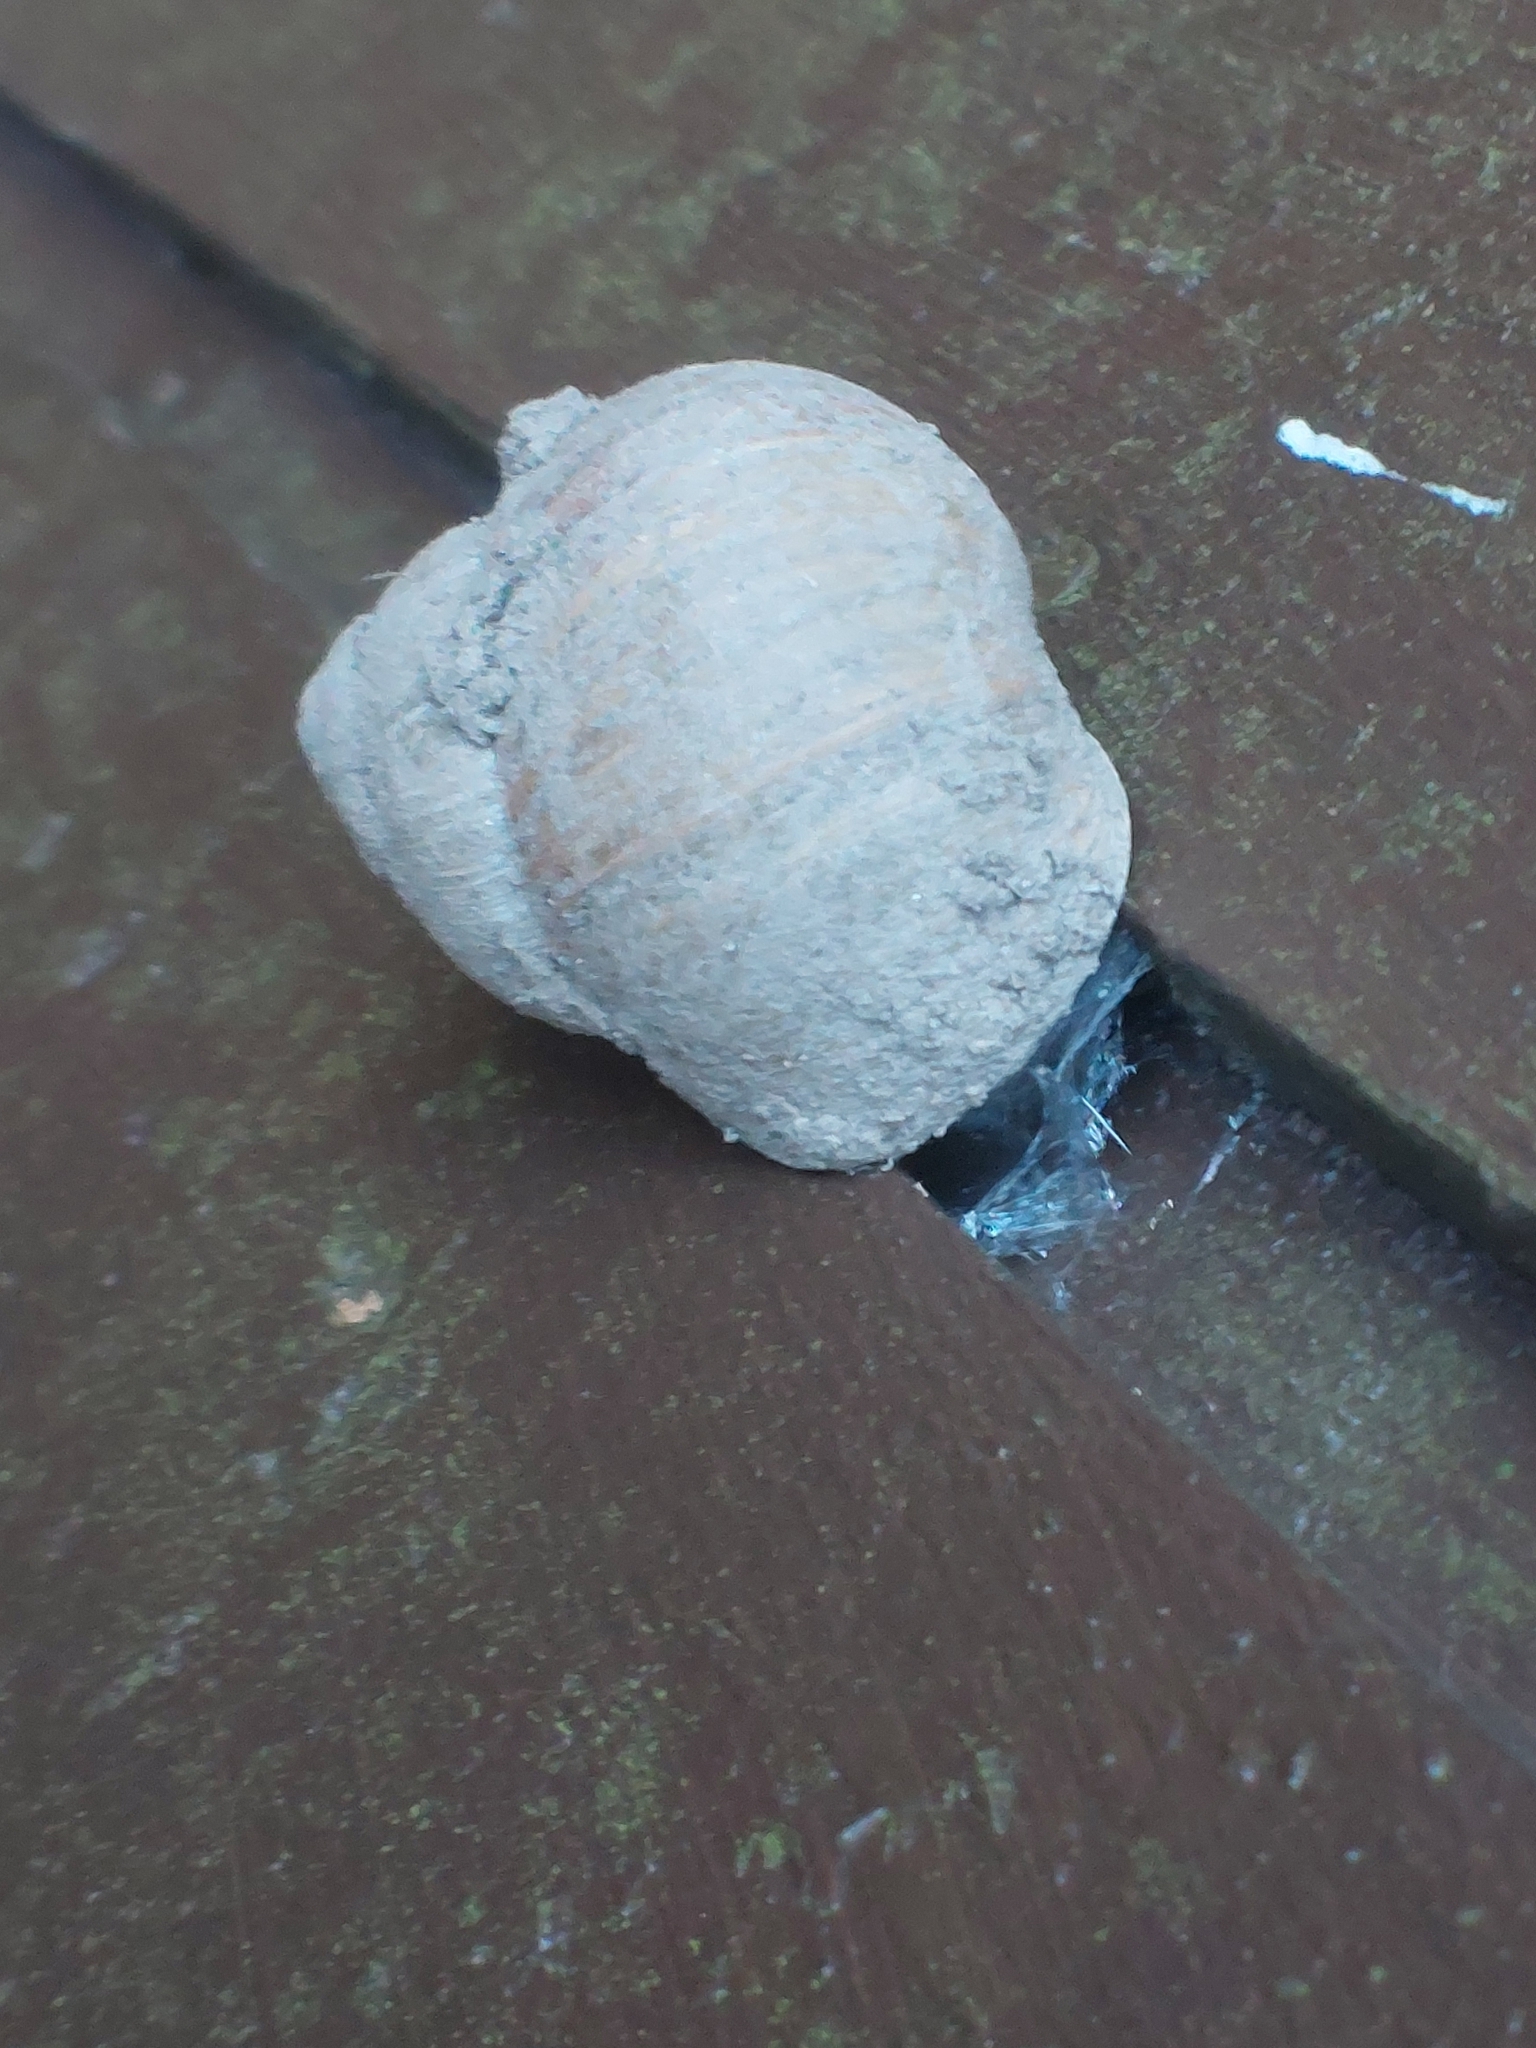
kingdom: Animalia
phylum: Mollusca
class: Gastropoda
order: Stylommatophora
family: Helicidae
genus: Helix
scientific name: Helix pomatia
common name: Roman snail
